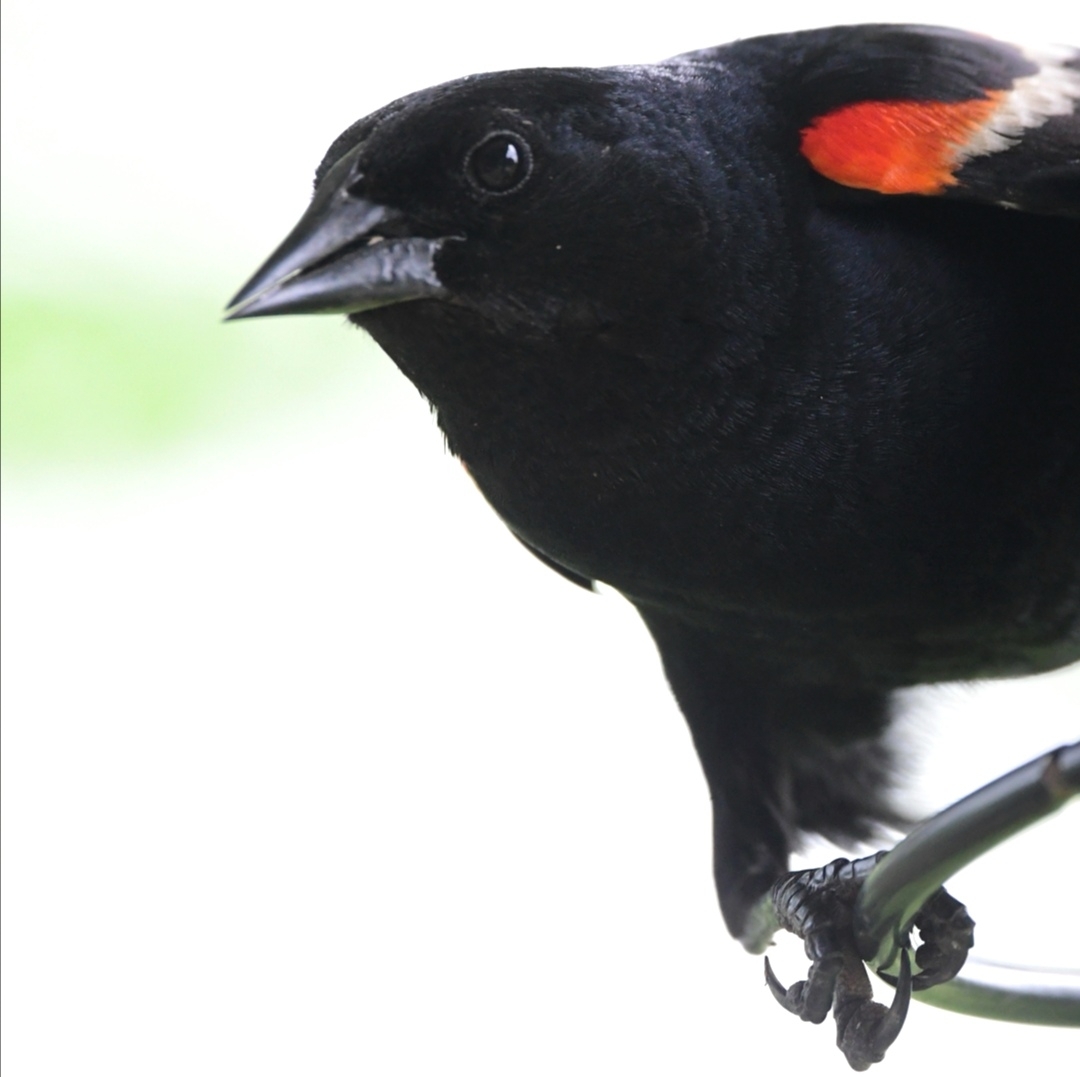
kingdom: Animalia
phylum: Chordata
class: Aves
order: Passeriformes
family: Icteridae
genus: Agelaius
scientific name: Agelaius phoeniceus
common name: Red-winged blackbird
